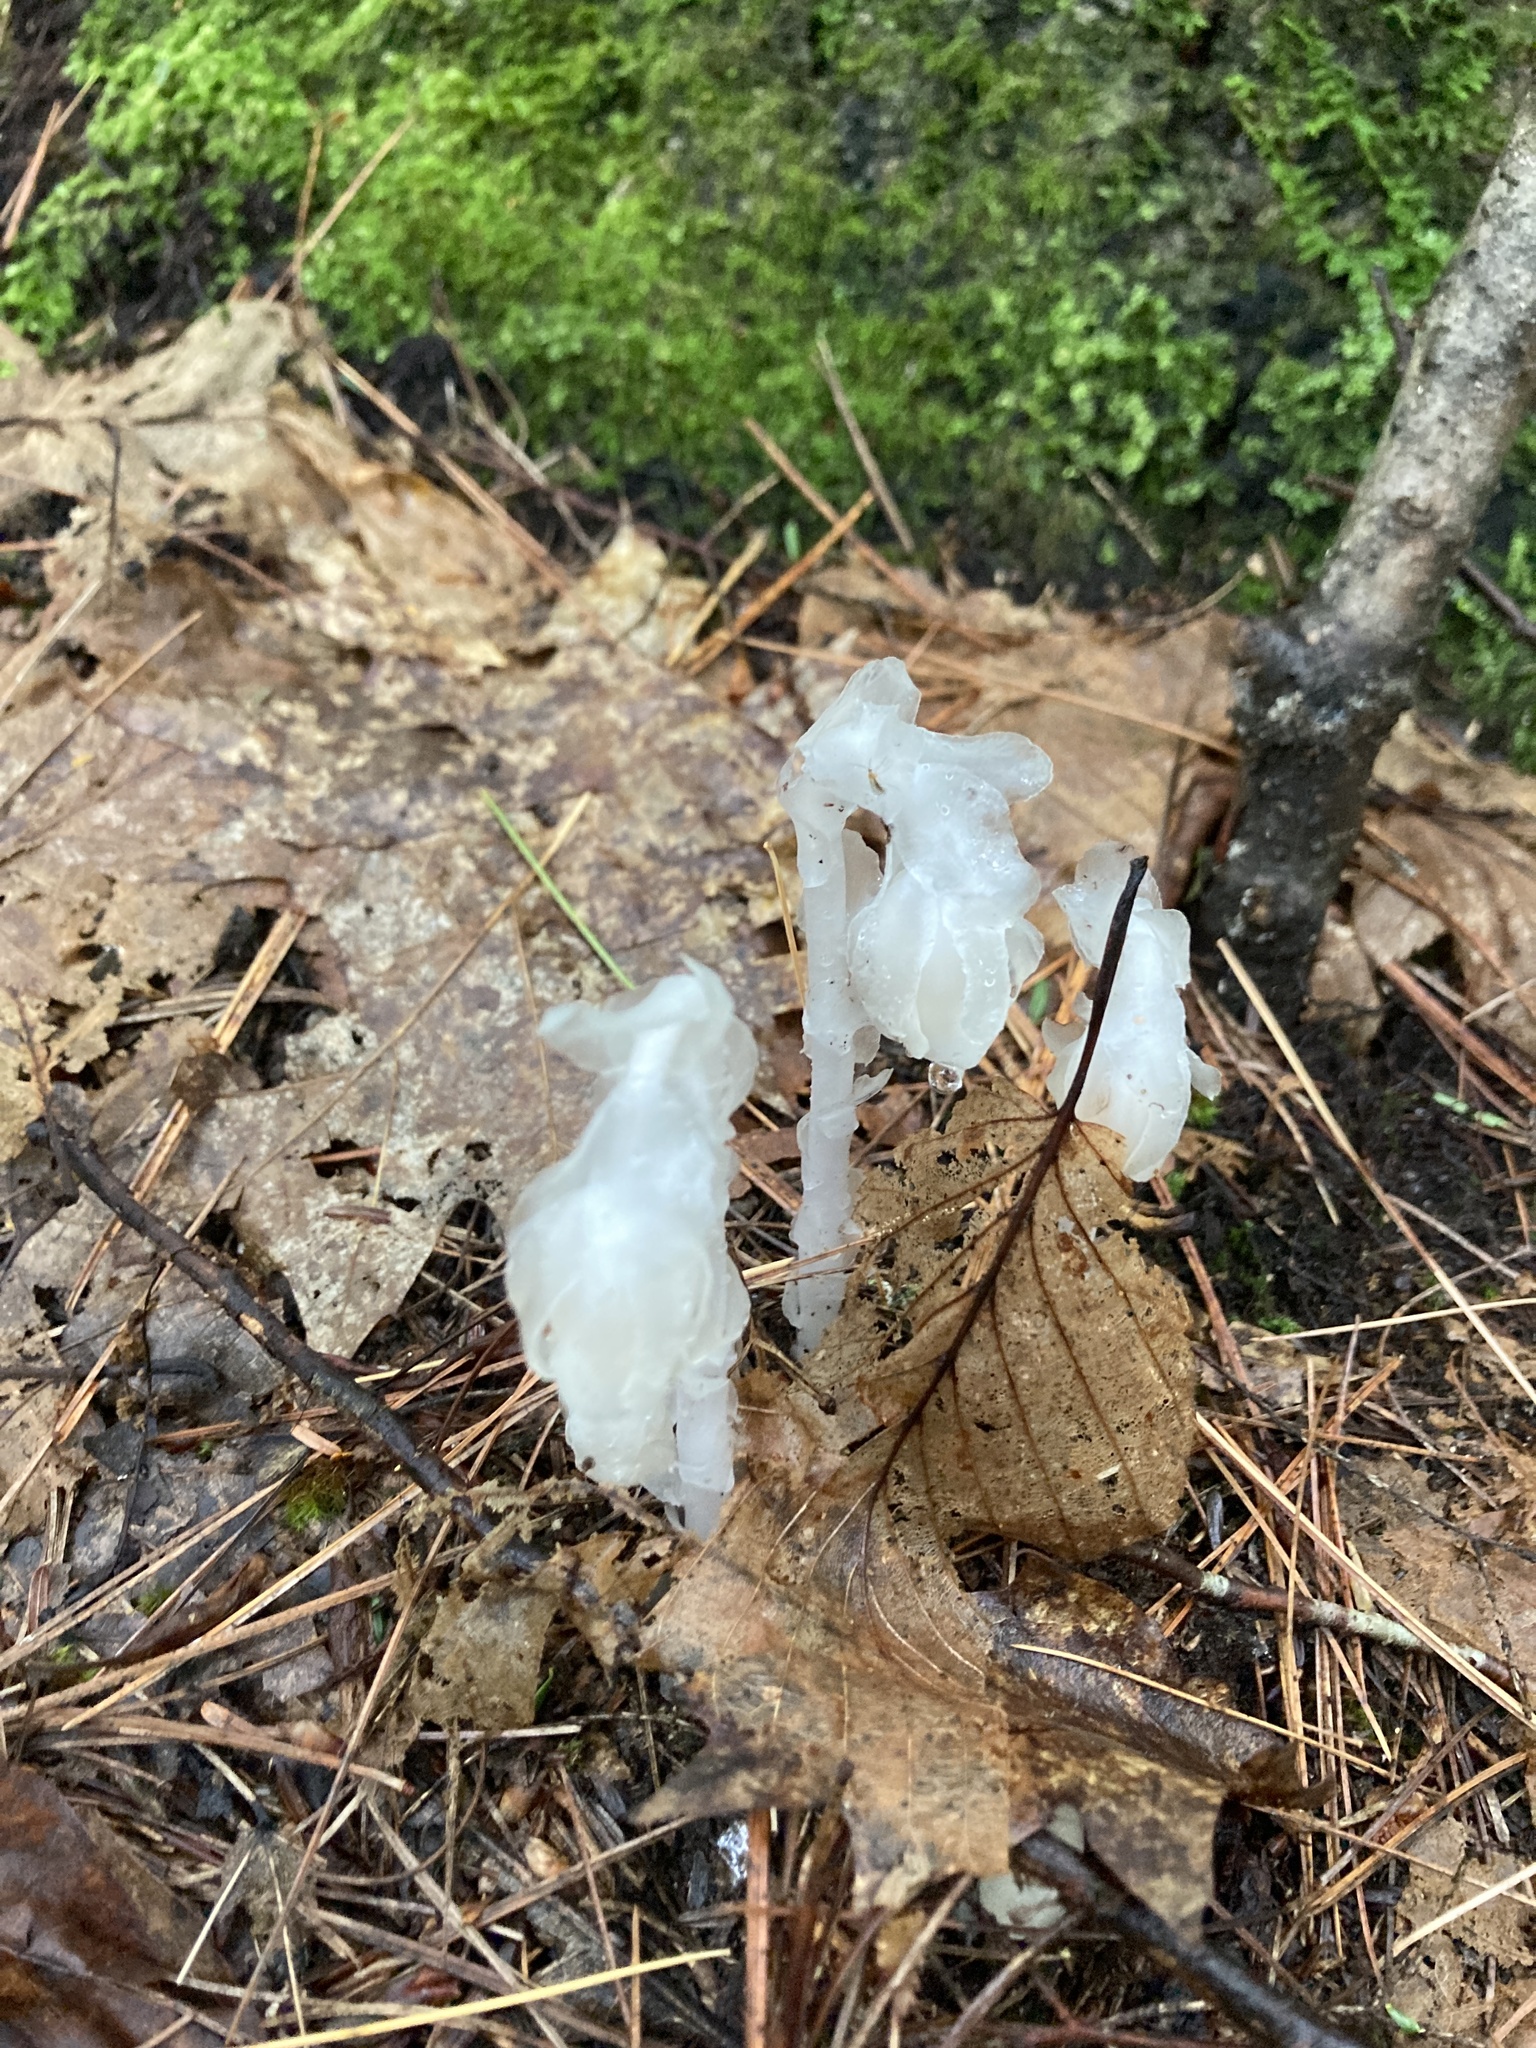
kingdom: Plantae
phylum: Tracheophyta
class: Magnoliopsida
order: Ericales
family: Ericaceae
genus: Monotropa
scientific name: Monotropa uniflora
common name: Convulsion root
